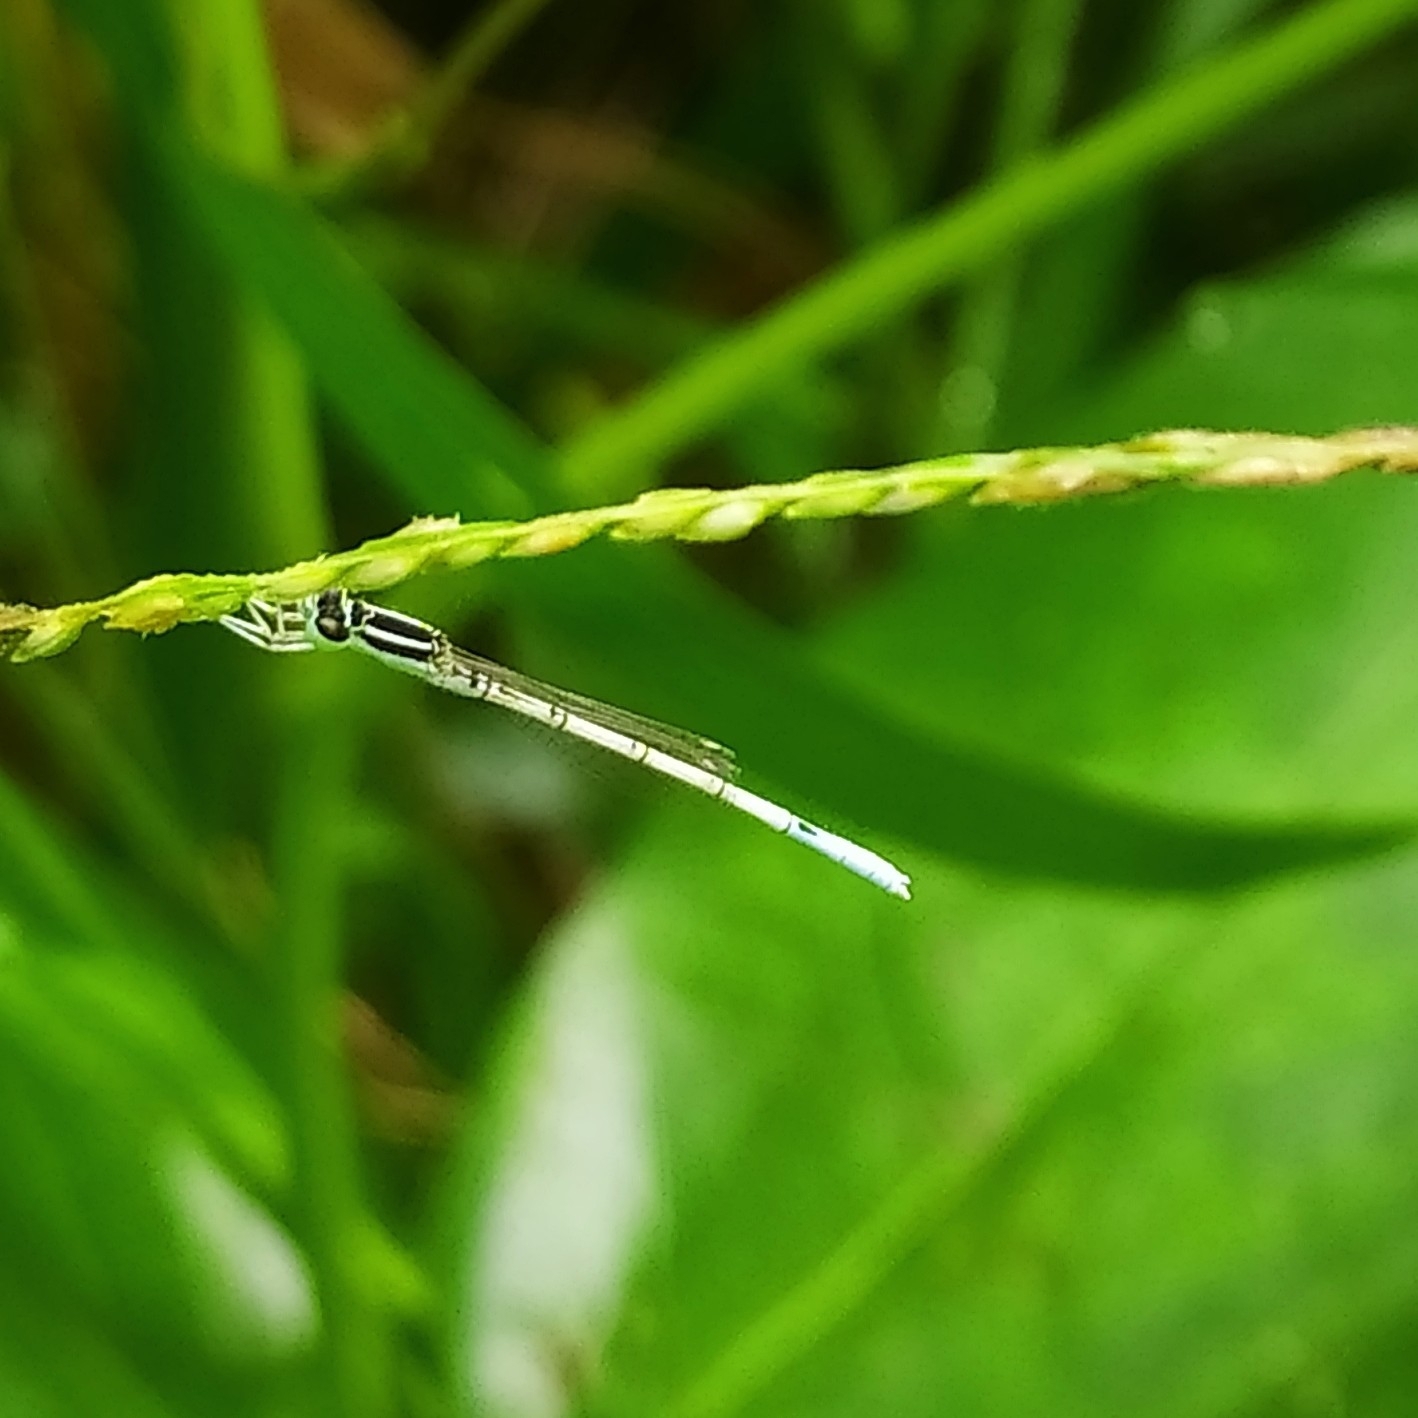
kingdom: Animalia
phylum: Arthropoda
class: Insecta
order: Odonata
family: Coenagrionidae
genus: Agriocnemis
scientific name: Agriocnemis pieris
